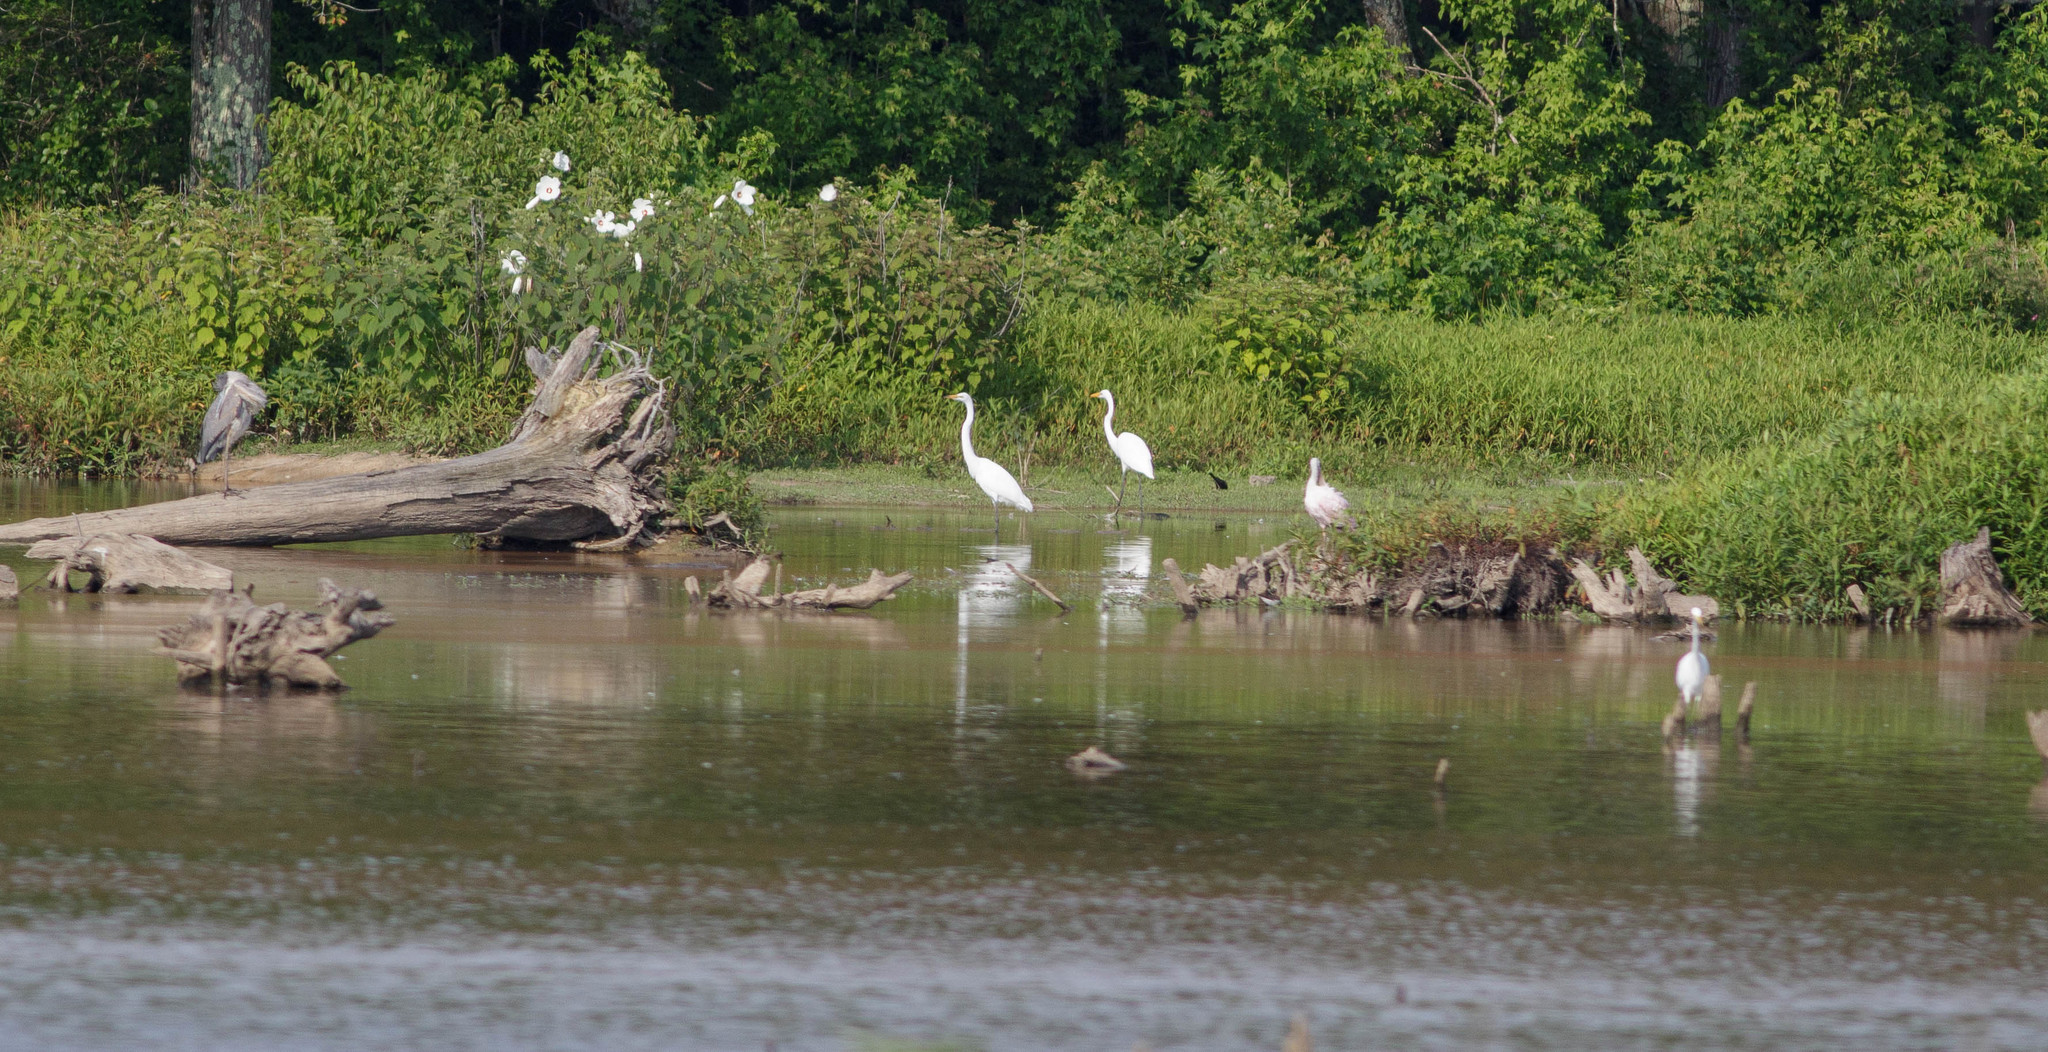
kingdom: Animalia
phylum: Chordata
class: Aves
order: Pelecaniformes
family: Ardeidae
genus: Ardea
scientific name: Ardea alba
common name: Great egret
